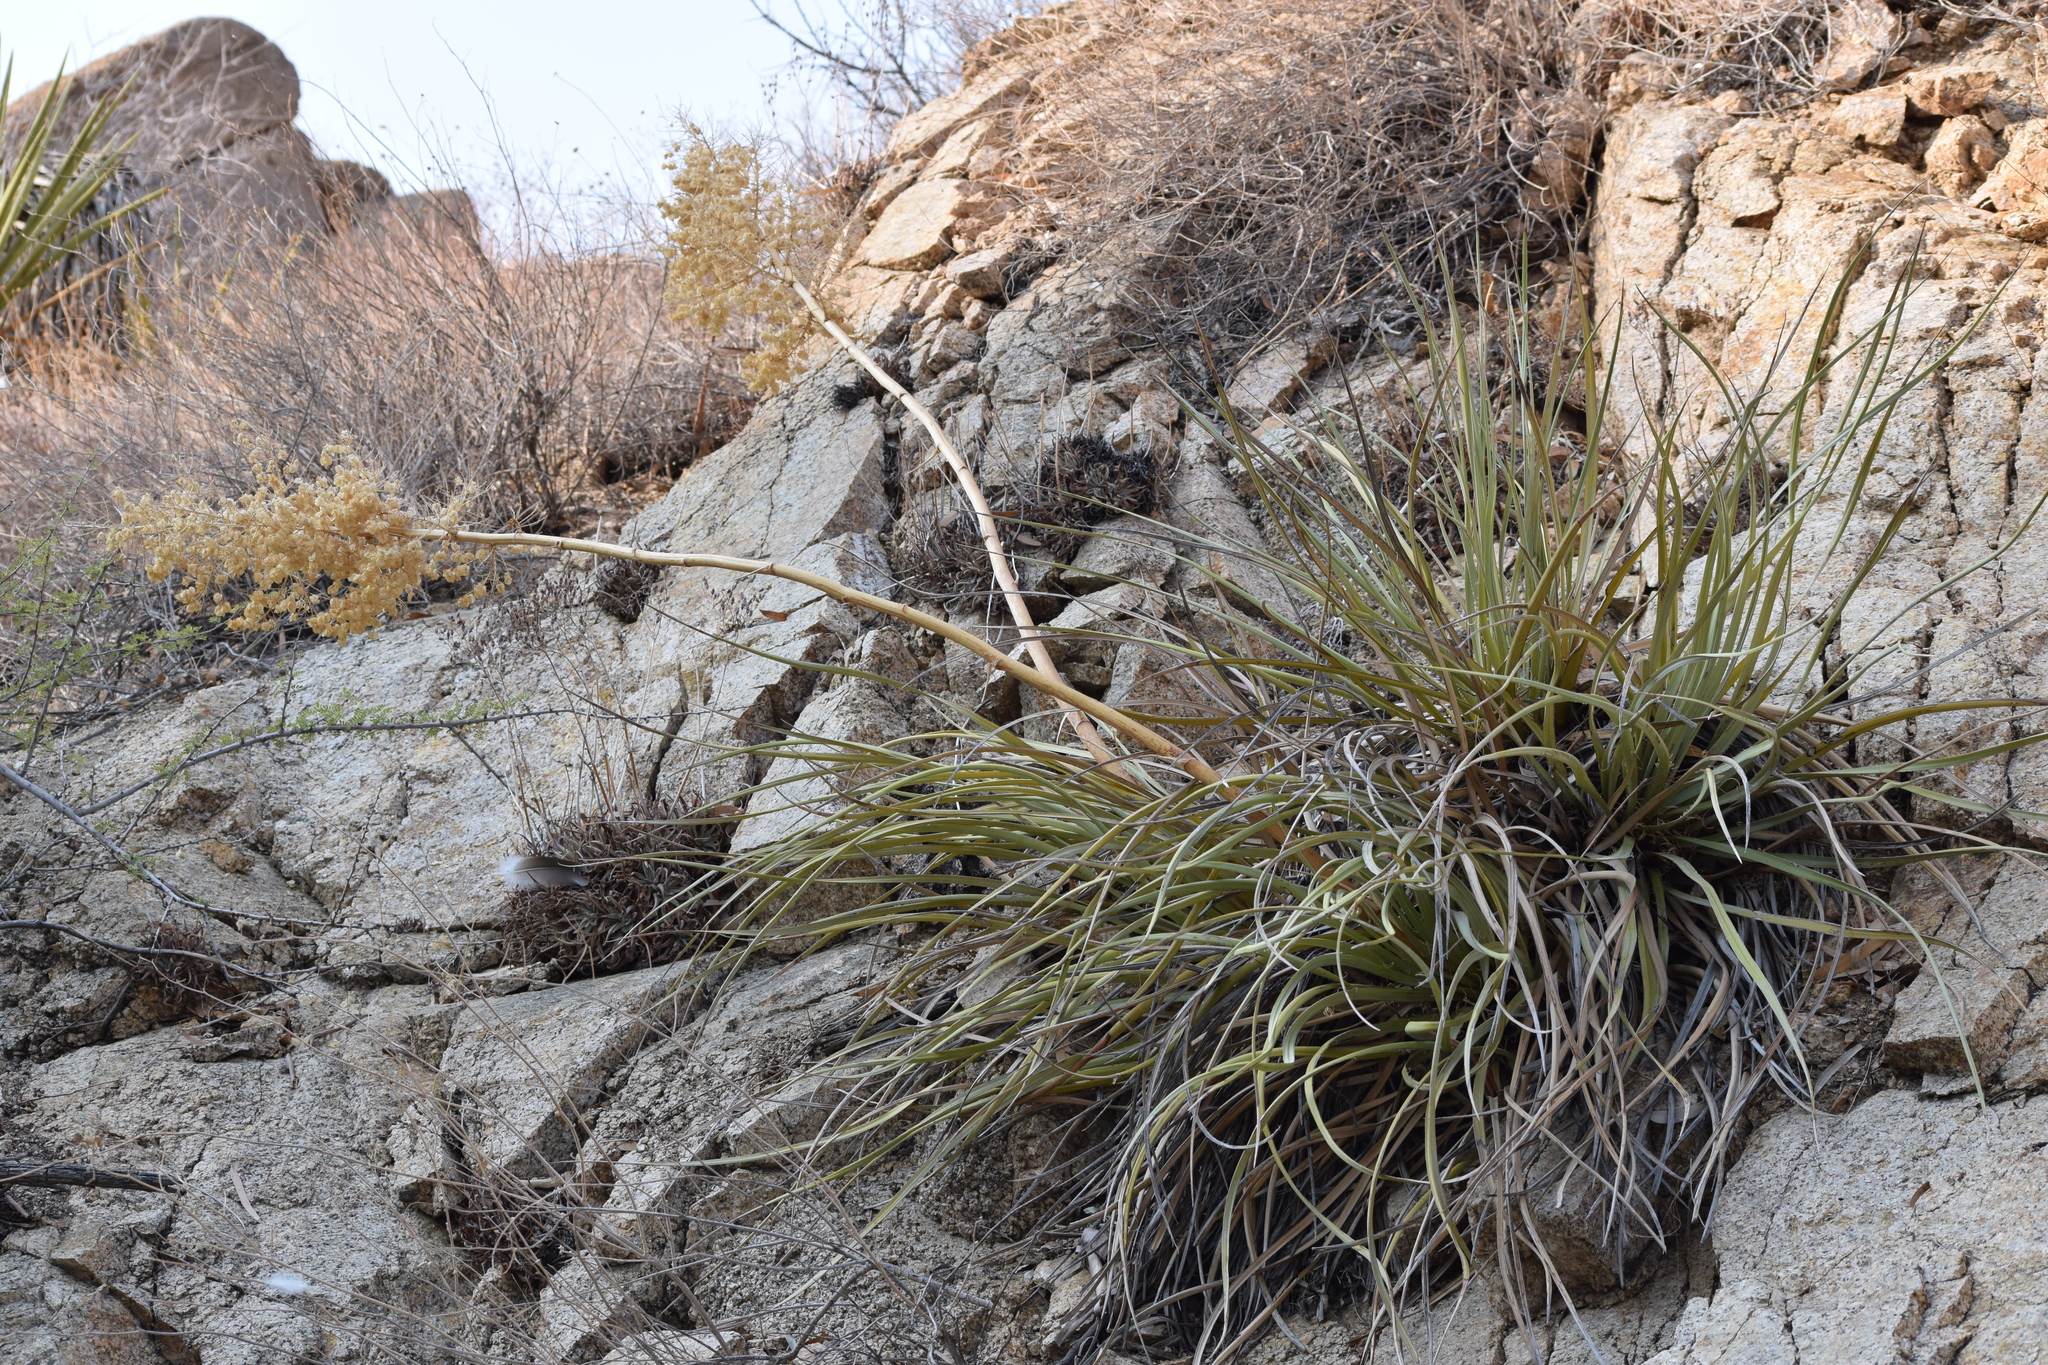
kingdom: Plantae
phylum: Tracheophyta
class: Liliopsida
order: Asparagales
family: Asparagaceae
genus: Nolina
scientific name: Nolina bigelovii
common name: Bigelow bear-grass
